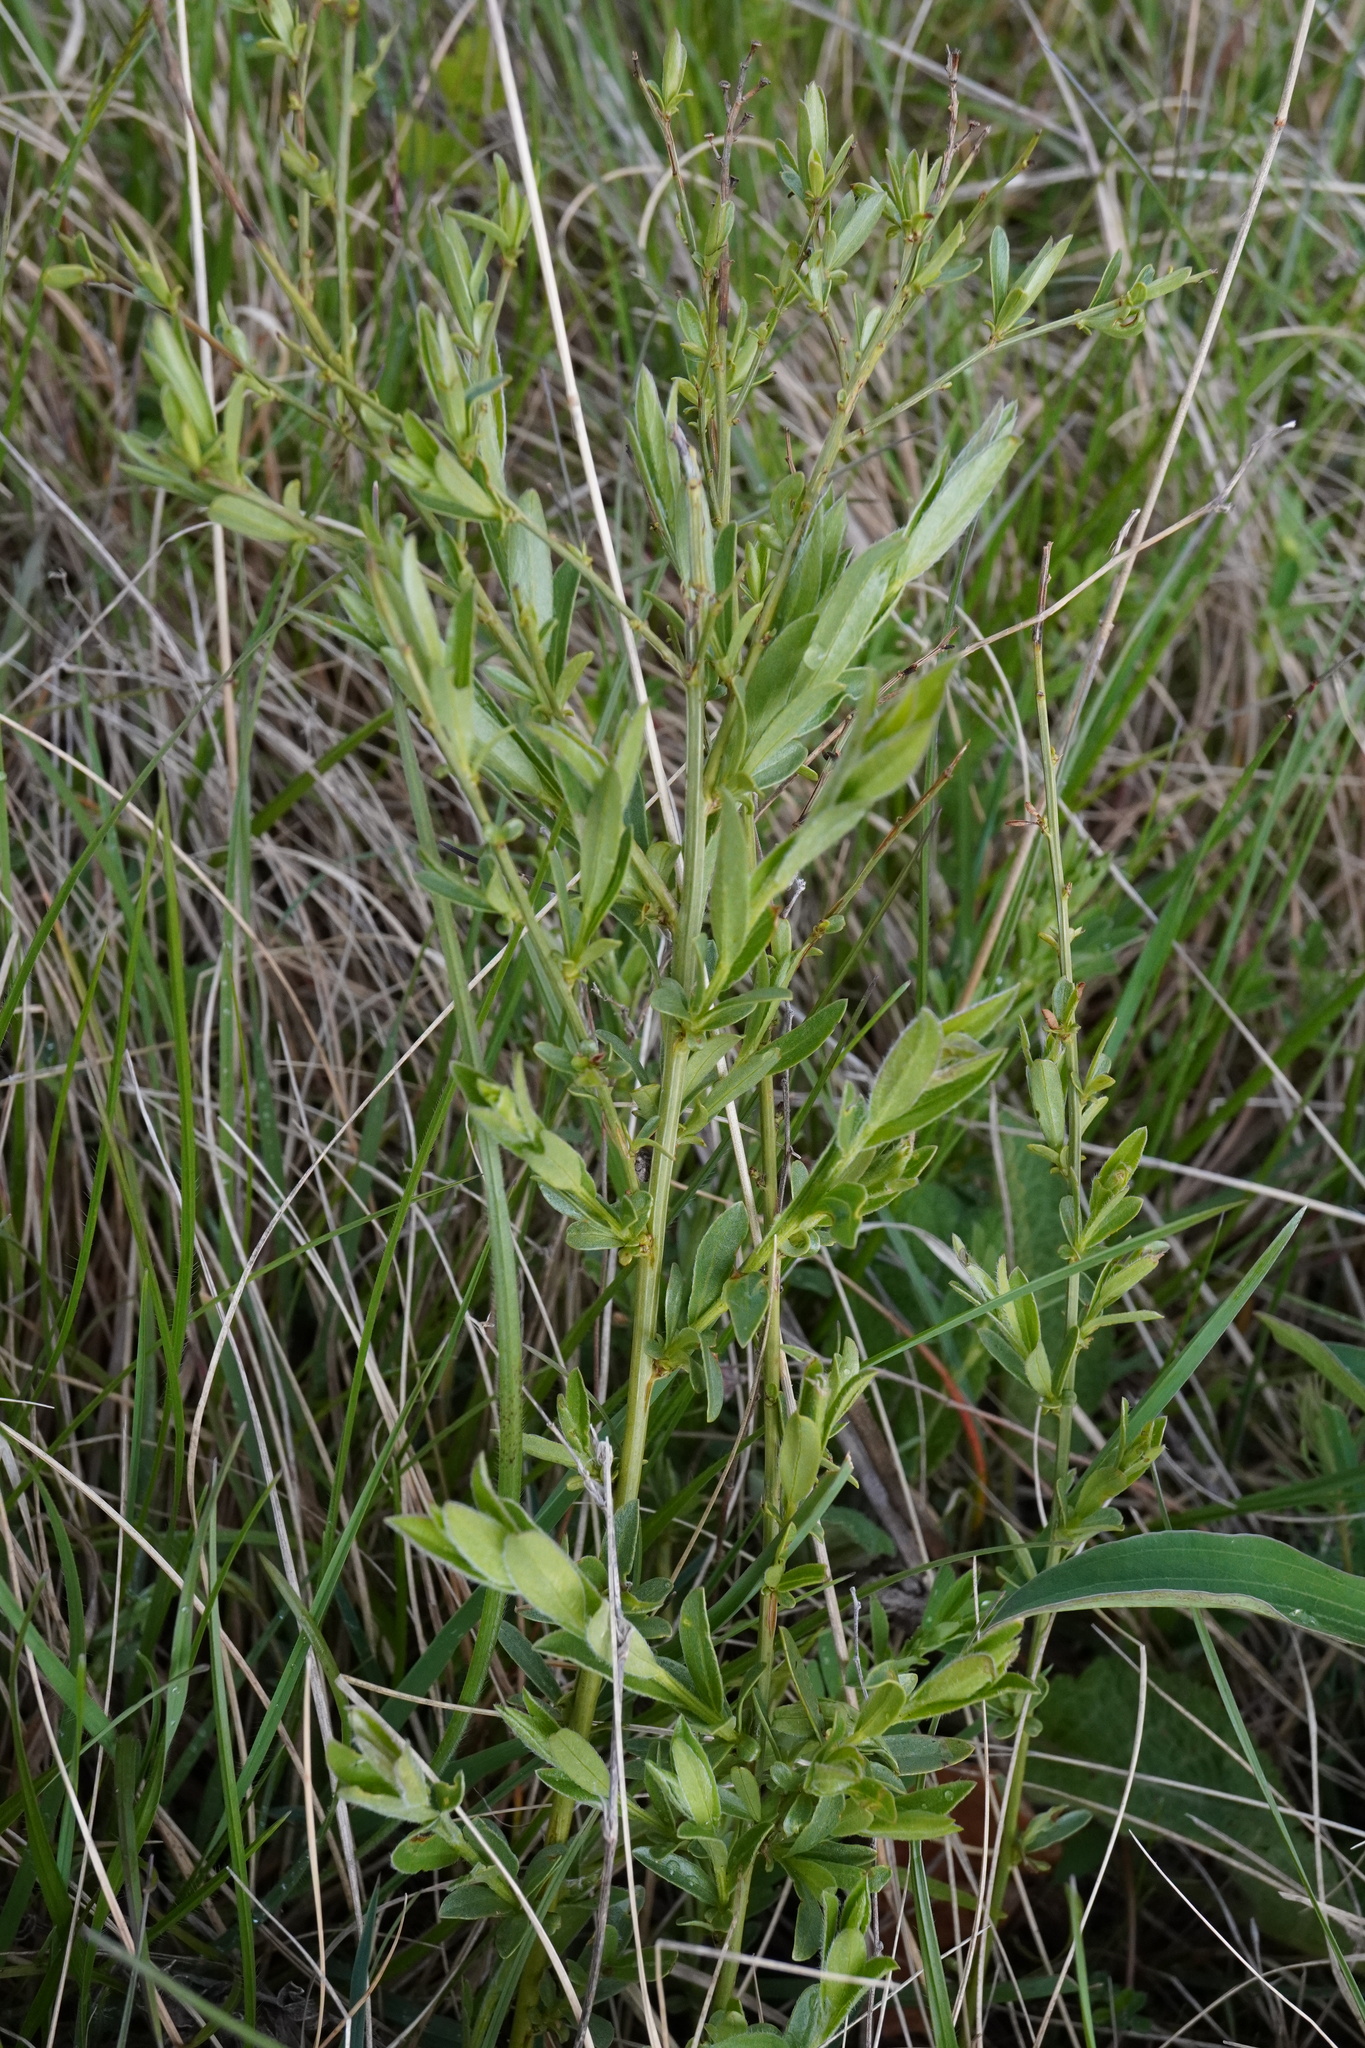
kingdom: Plantae
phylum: Tracheophyta
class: Magnoliopsida
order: Fabales
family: Fabaceae
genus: Genista
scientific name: Genista tinctoria
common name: Dyer's greenweed
